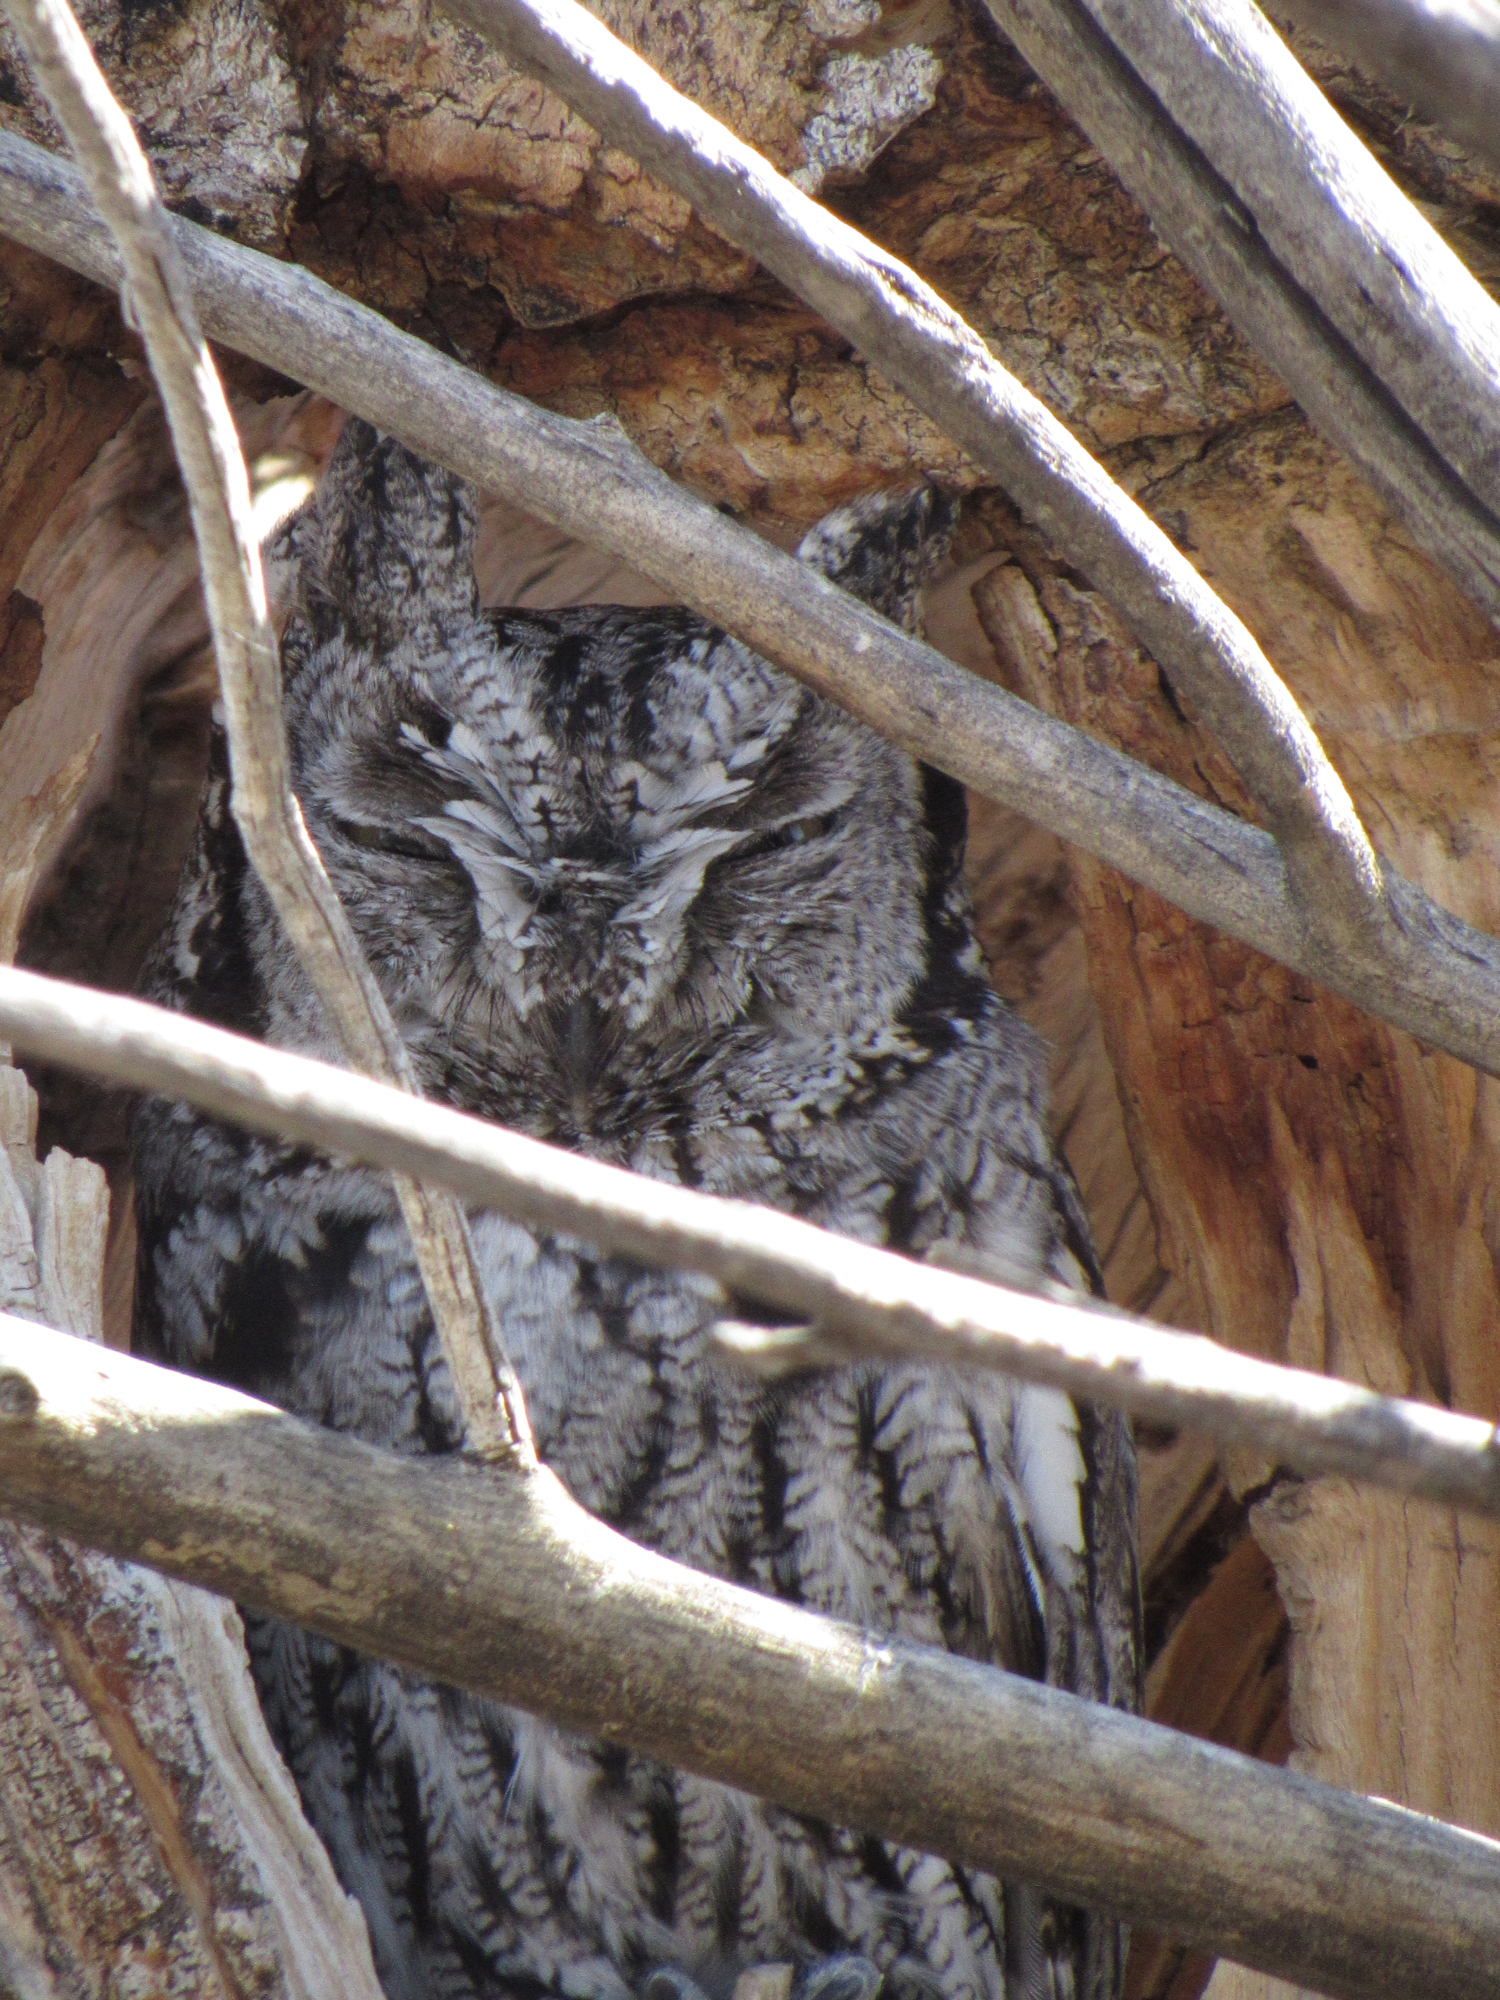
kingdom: Animalia
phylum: Chordata
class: Aves
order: Strigiformes
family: Strigidae
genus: Megascops
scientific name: Megascops kennicottii
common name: Western screech-owl
